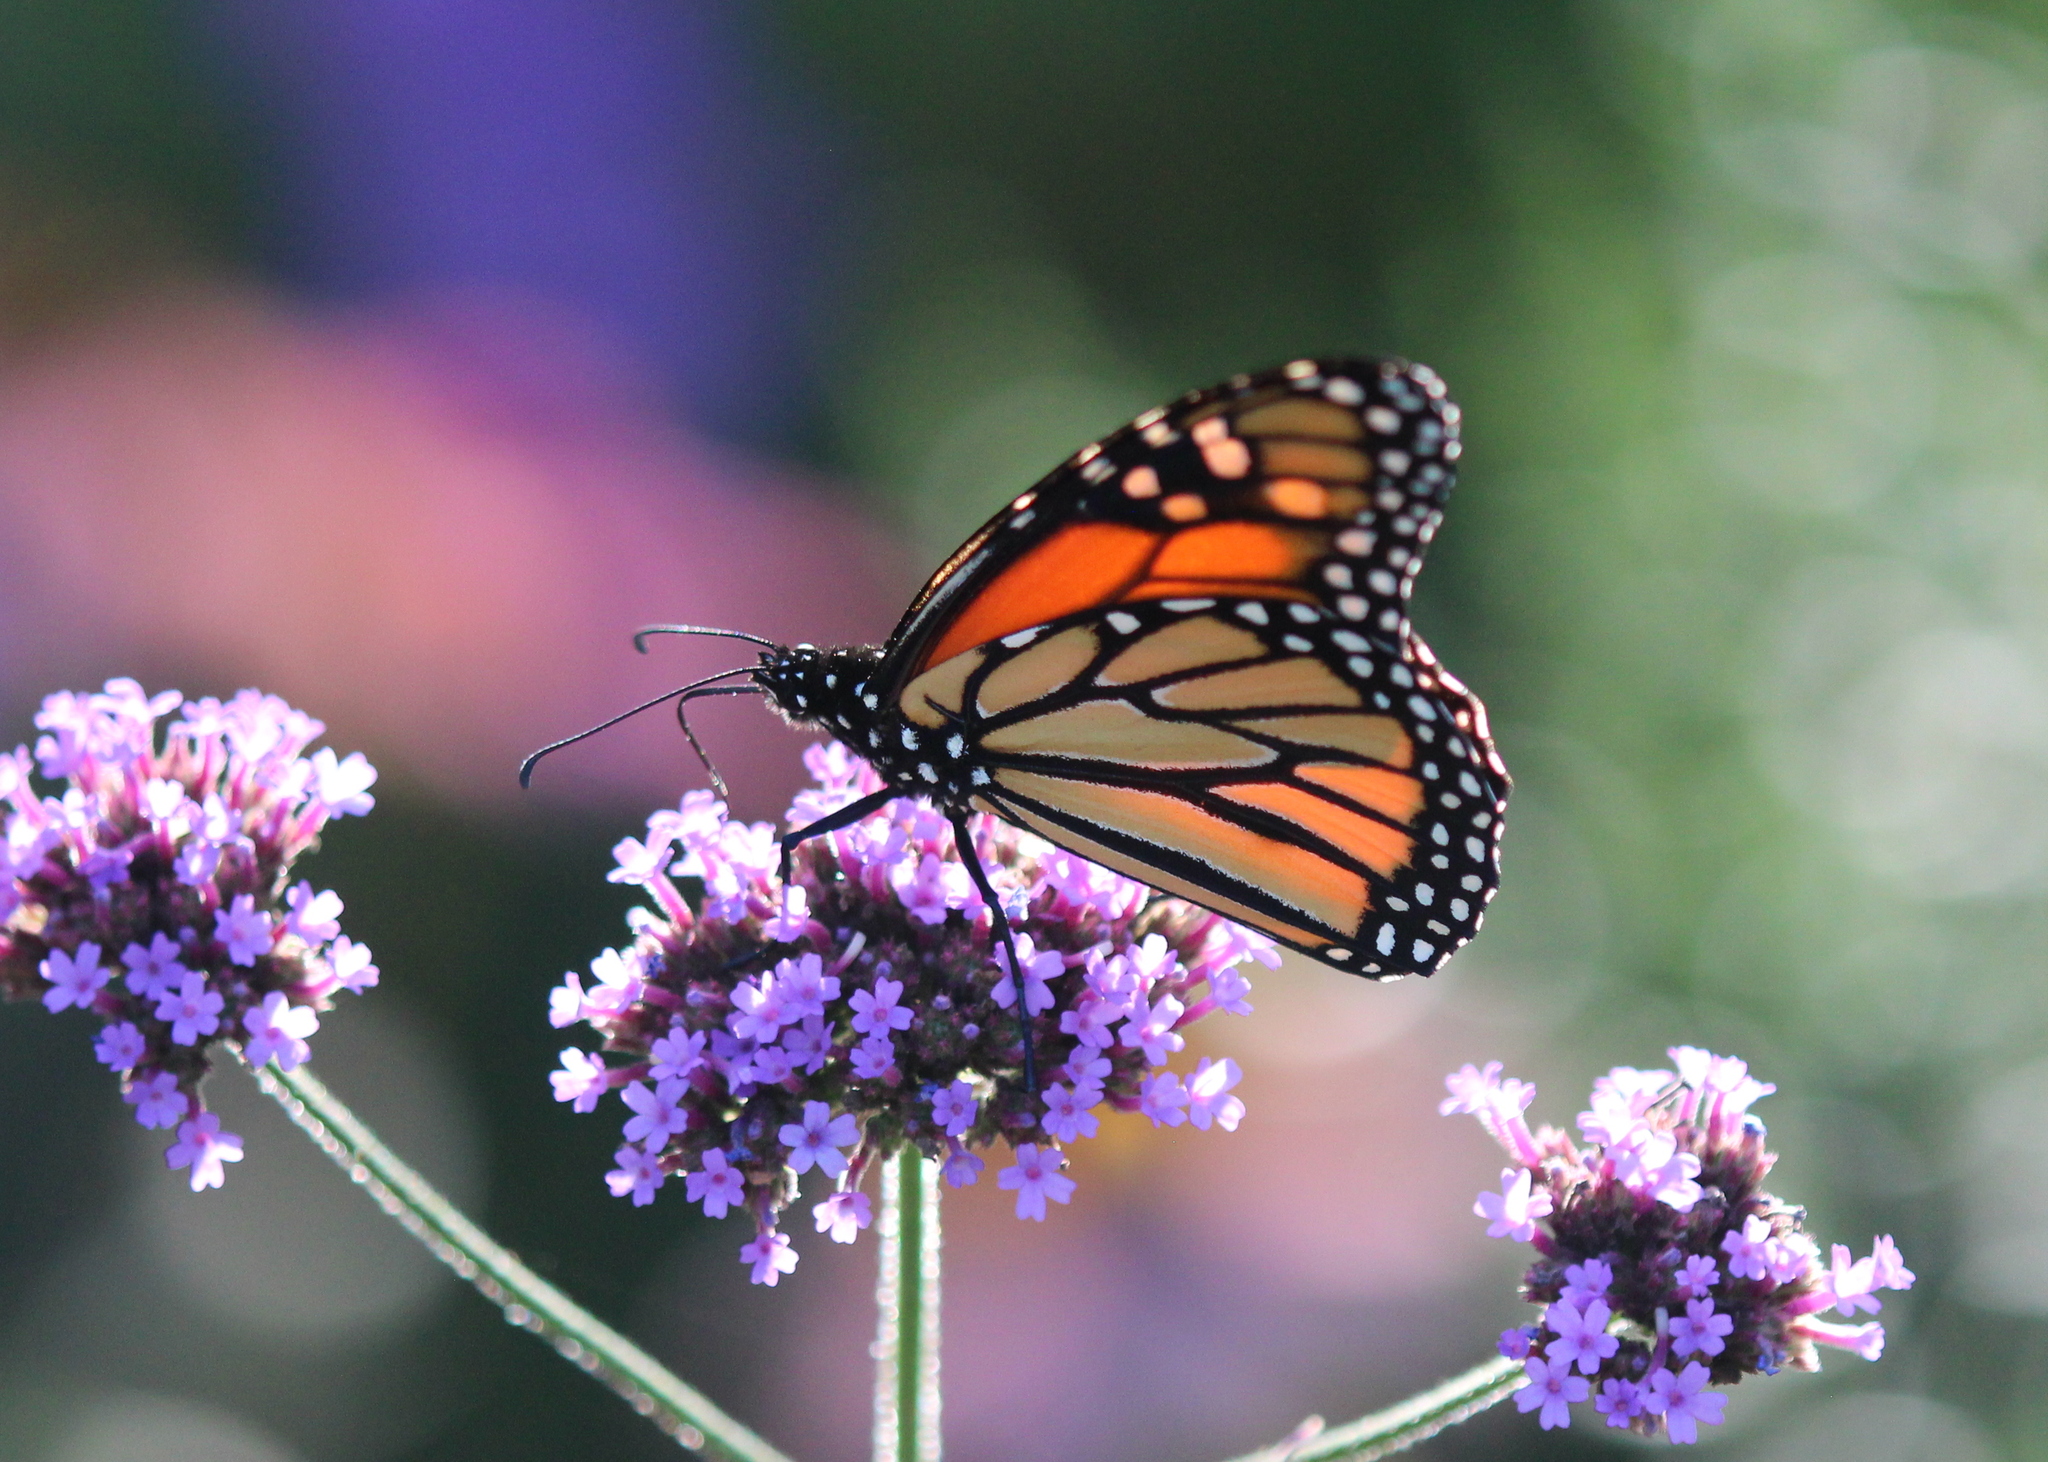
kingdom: Animalia
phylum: Arthropoda
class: Insecta
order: Lepidoptera
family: Nymphalidae
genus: Danaus
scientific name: Danaus plexippus
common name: Monarch
